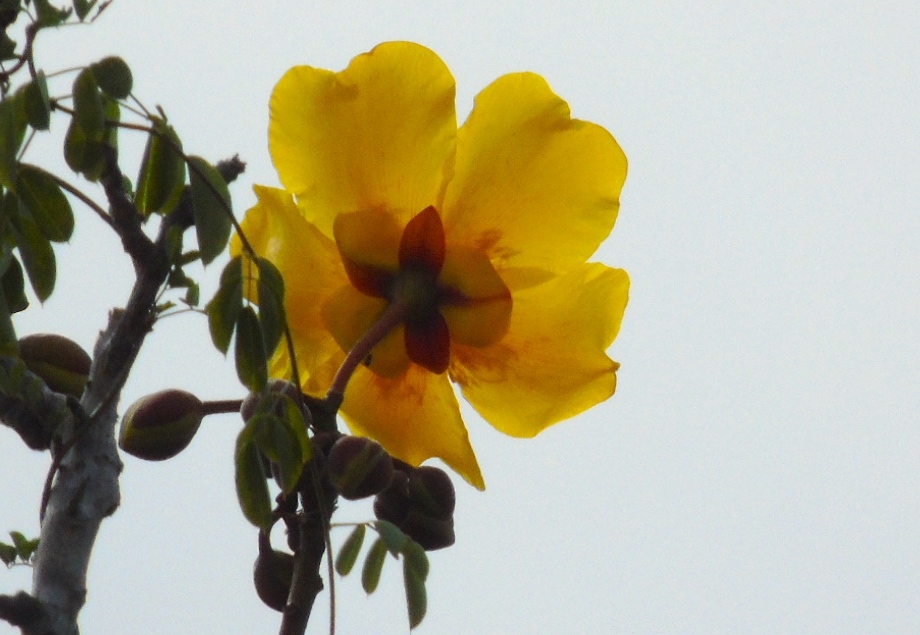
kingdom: Plantae
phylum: Tracheophyta
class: Magnoliopsida
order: Malvales
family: Cochlospermaceae
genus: Cochlospermum
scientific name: Cochlospermum vitifolium
